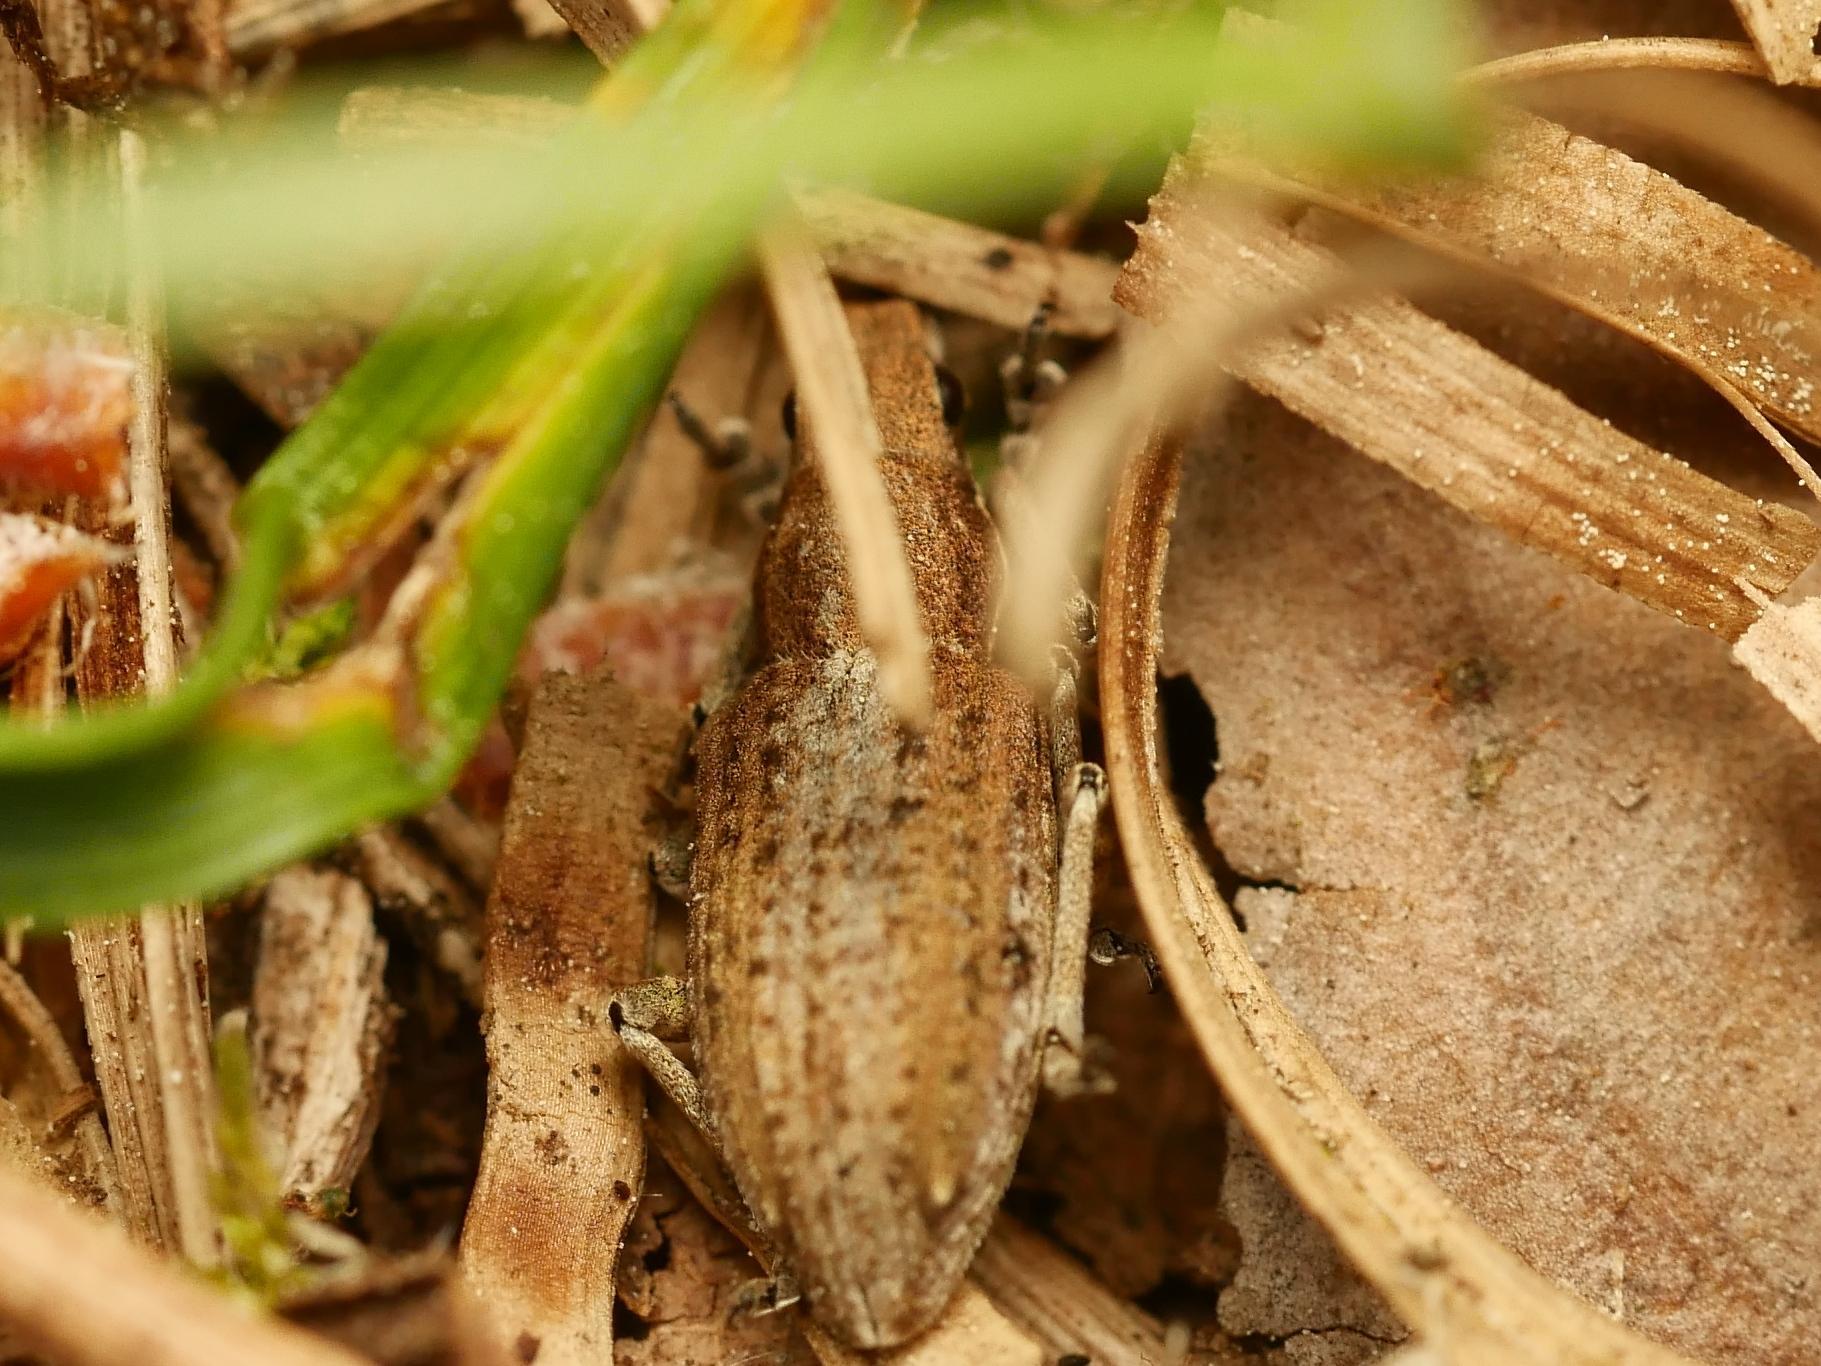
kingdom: Animalia
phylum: Arthropoda
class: Insecta
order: Coleoptera
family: Curculionidae
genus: Charagmus
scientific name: Charagmus griseus
